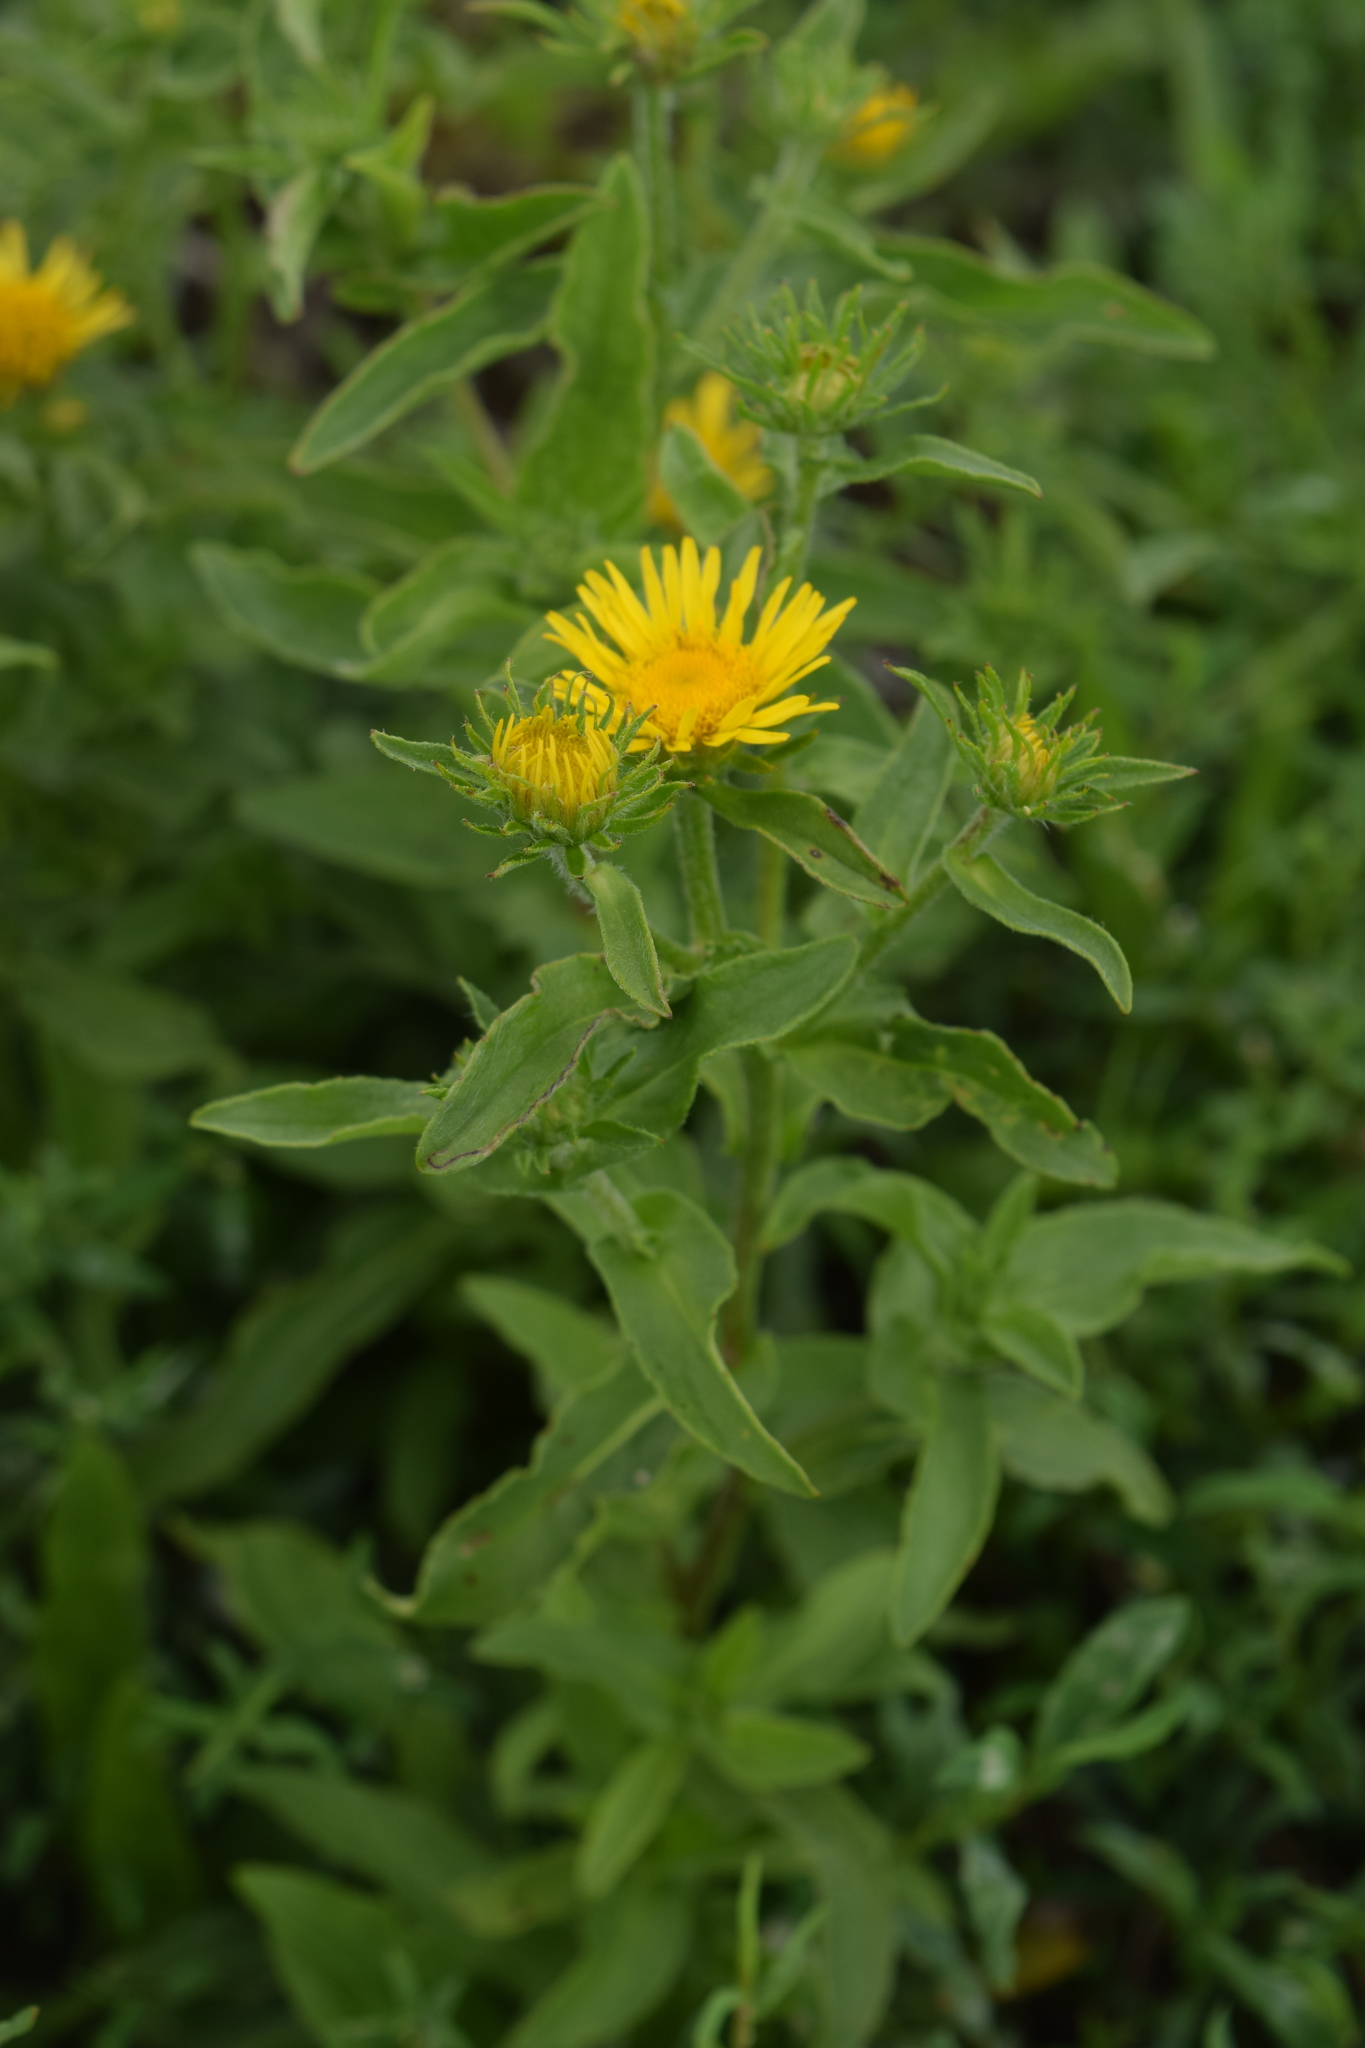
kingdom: Plantae
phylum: Tracheophyta
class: Magnoliopsida
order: Asterales
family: Asteraceae
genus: Pentanema
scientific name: Pentanema britannicum
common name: British elecampane
